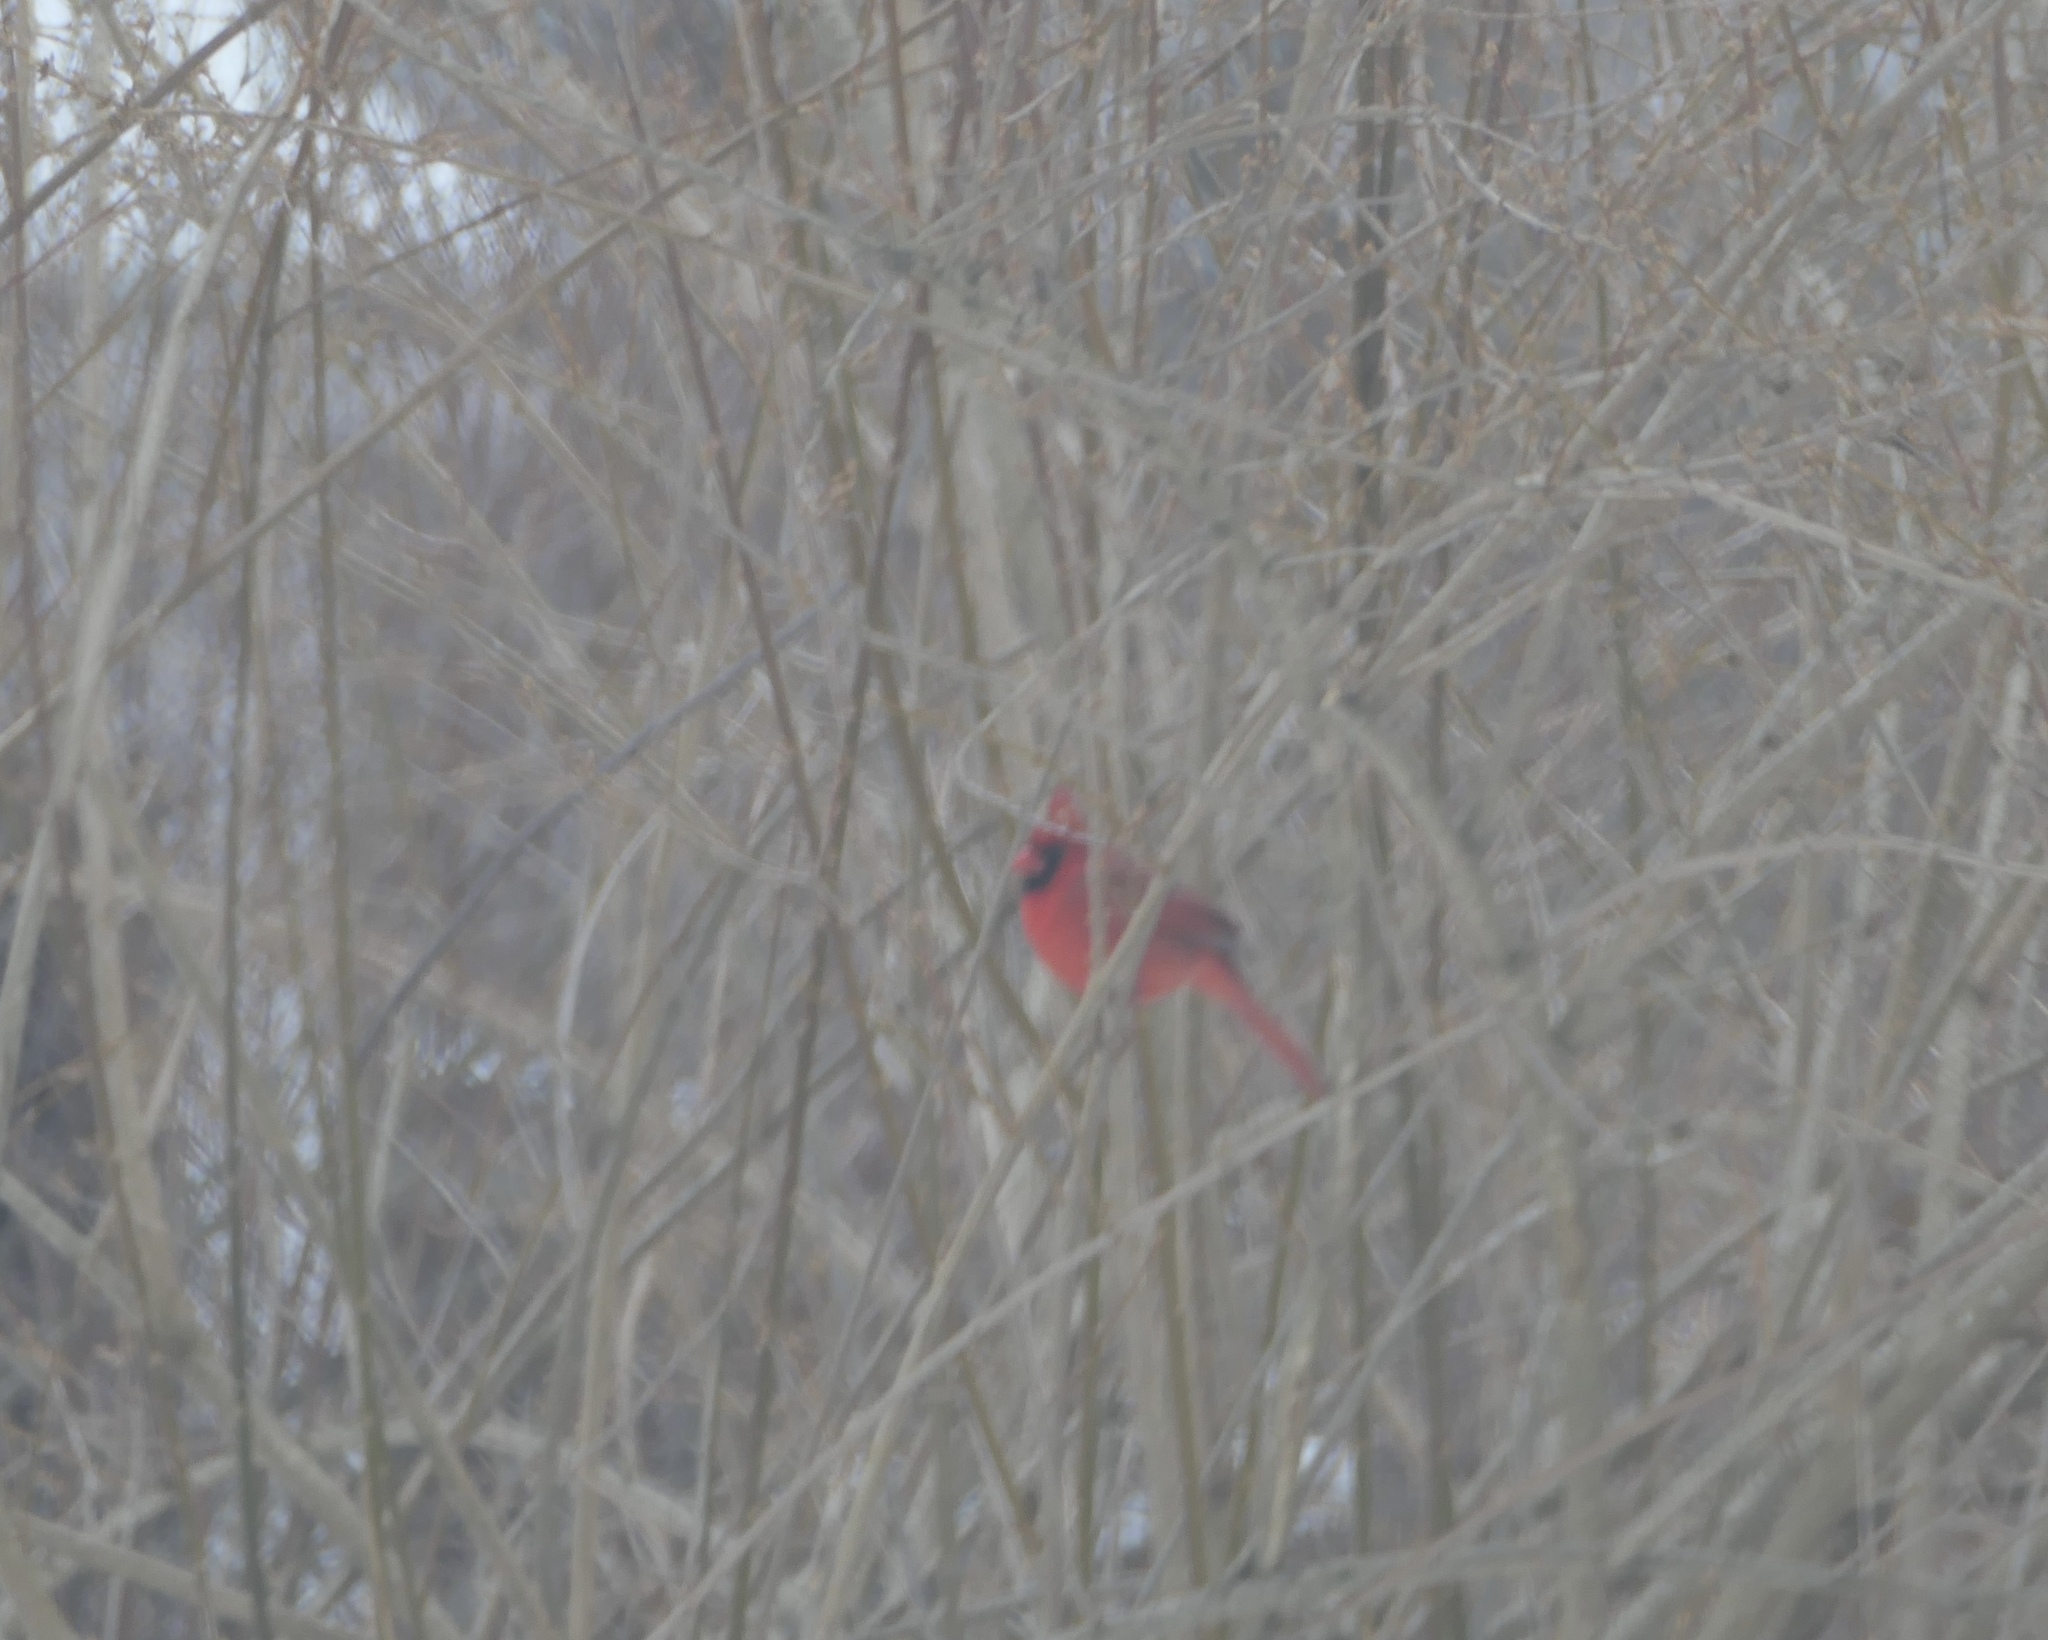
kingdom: Animalia
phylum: Chordata
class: Aves
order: Passeriformes
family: Cardinalidae
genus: Cardinalis
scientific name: Cardinalis cardinalis
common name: Northern cardinal
